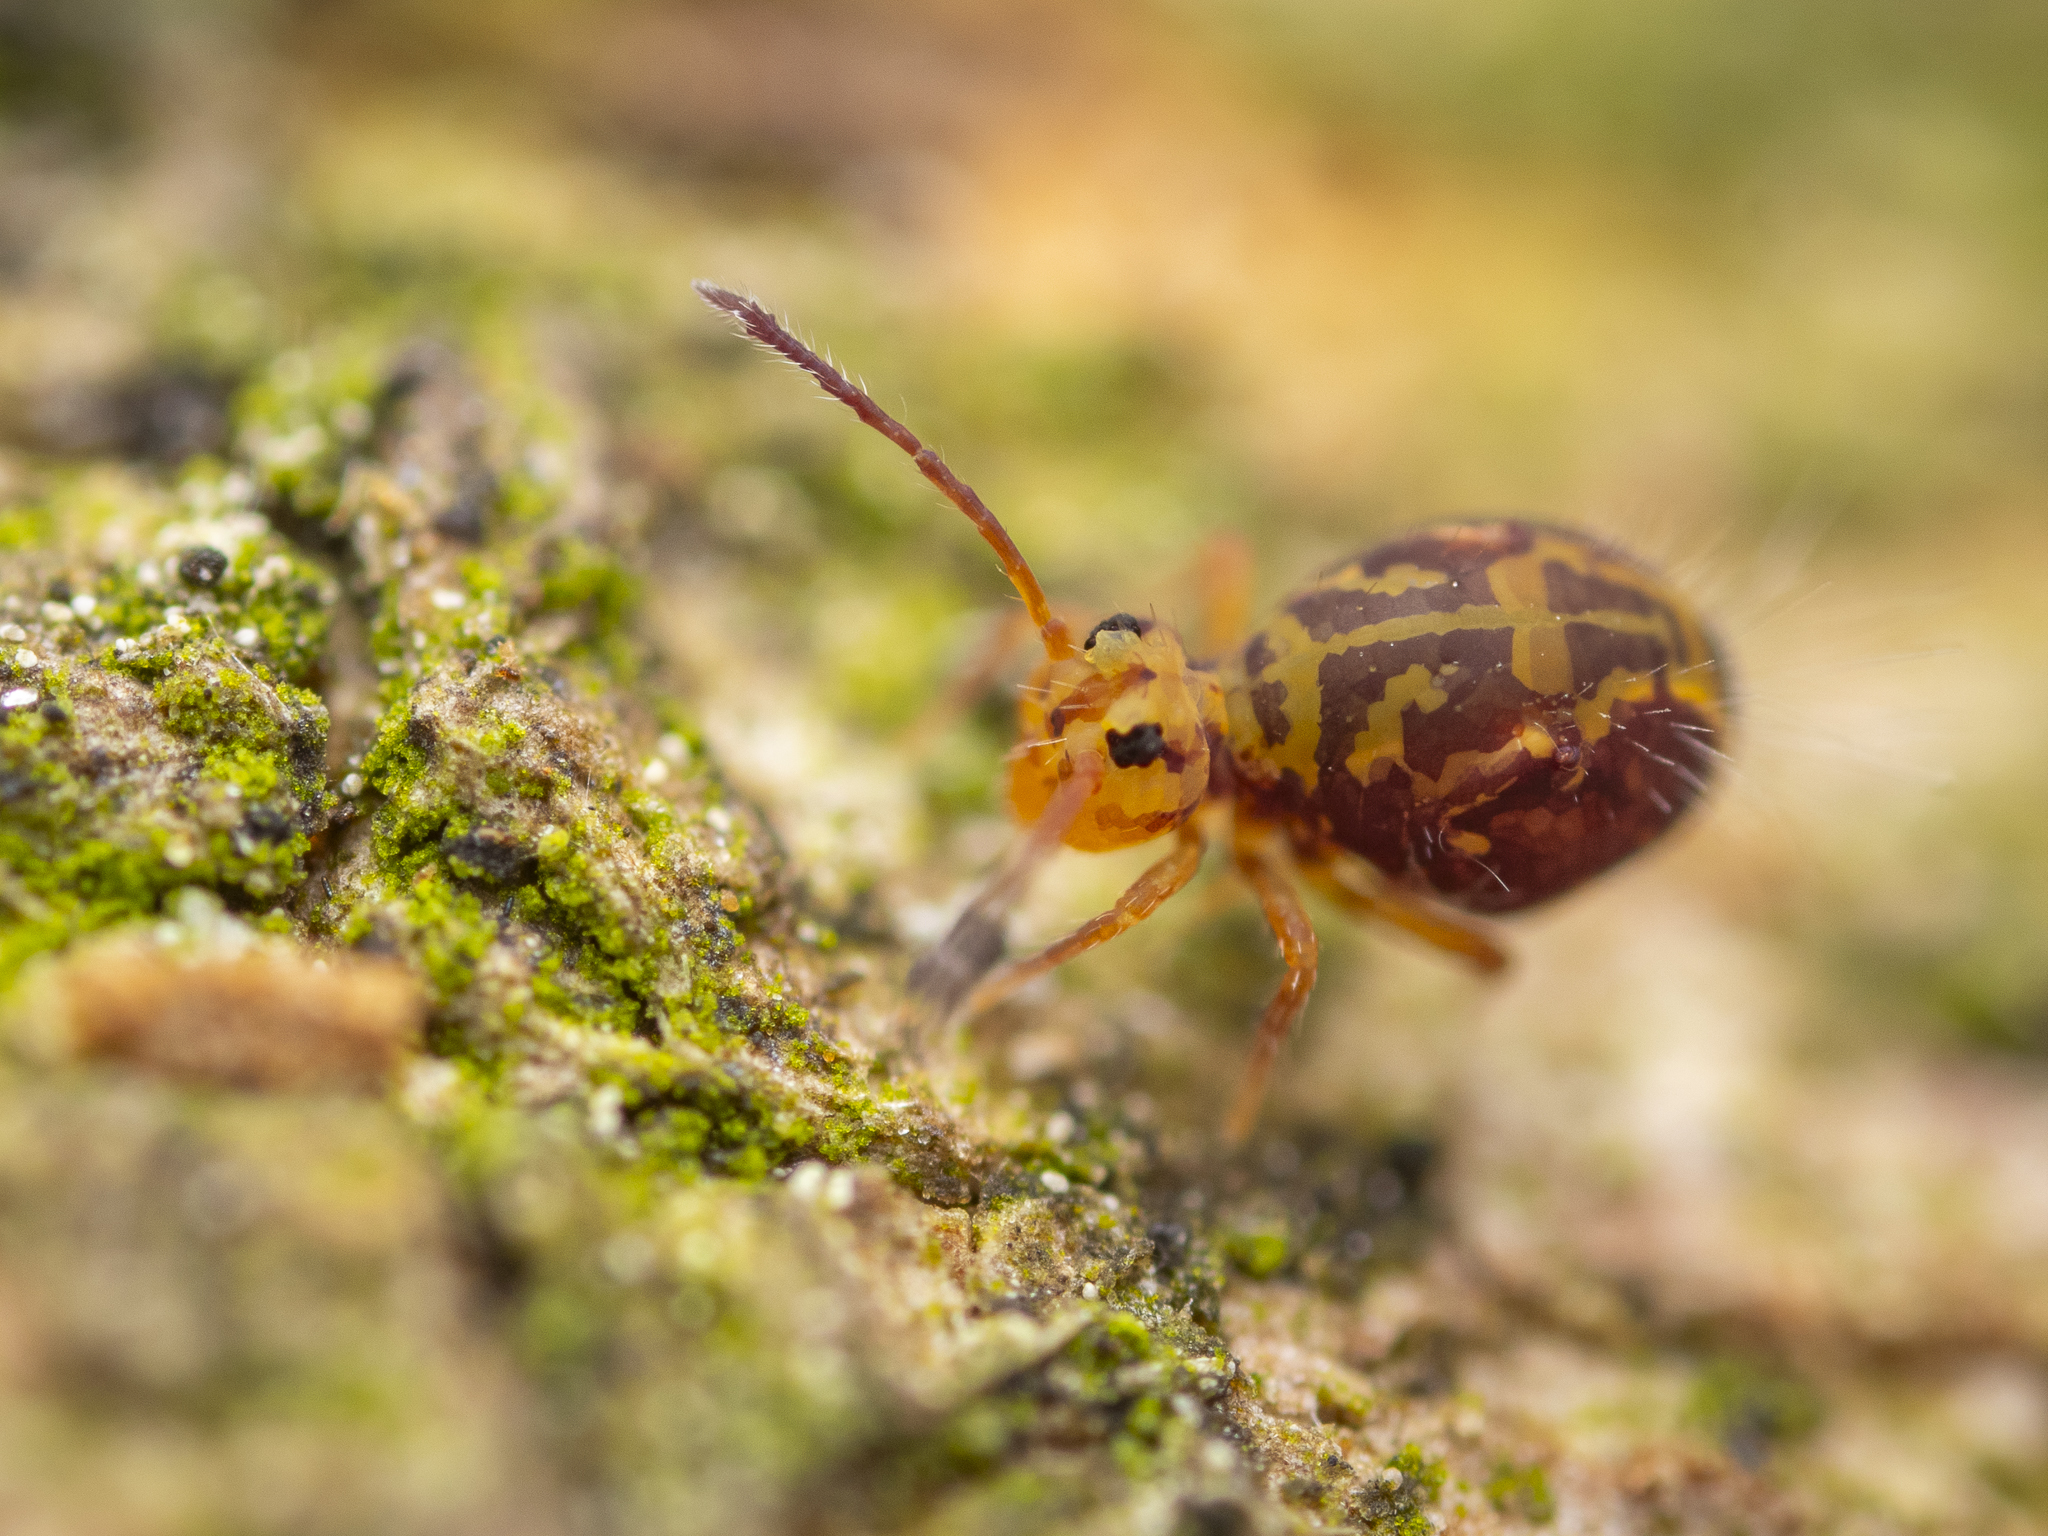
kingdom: Animalia
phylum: Arthropoda
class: Collembola
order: Symphypleona
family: Dicyrtomidae
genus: Dicyrtomina
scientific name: Dicyrtomina ornata
